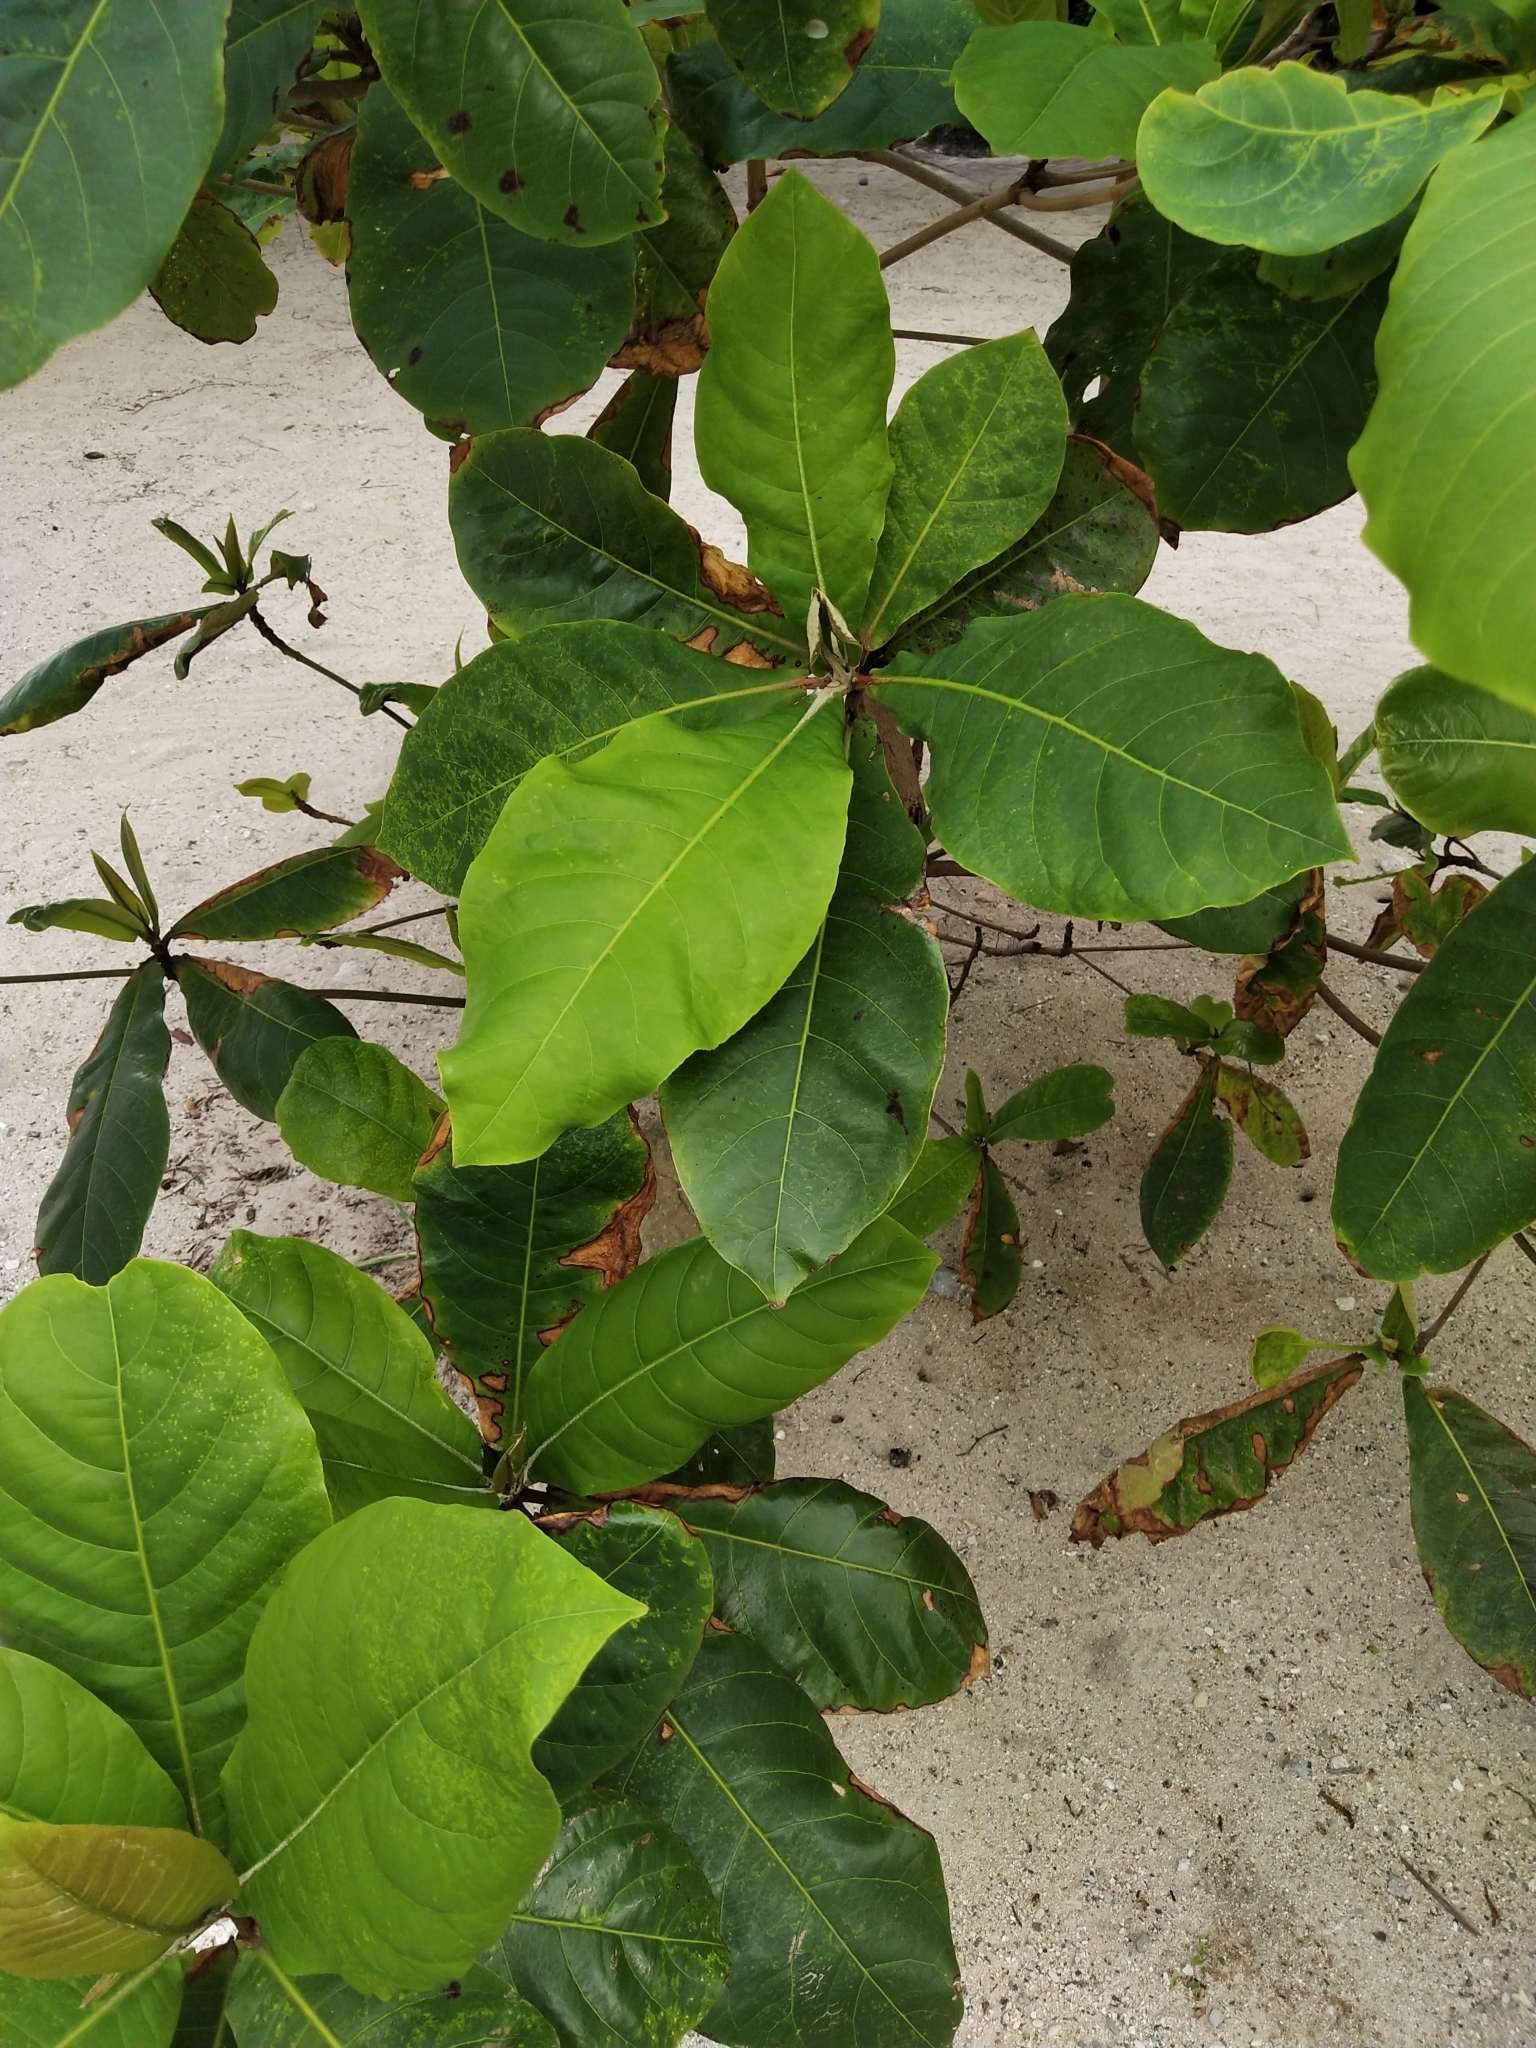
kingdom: Plantae
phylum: Tracheophyta
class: Magnoliopsida
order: Myrtales
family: Combretaceae
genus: Terminalia
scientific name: Terminalia catappa
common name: Tropical almond
